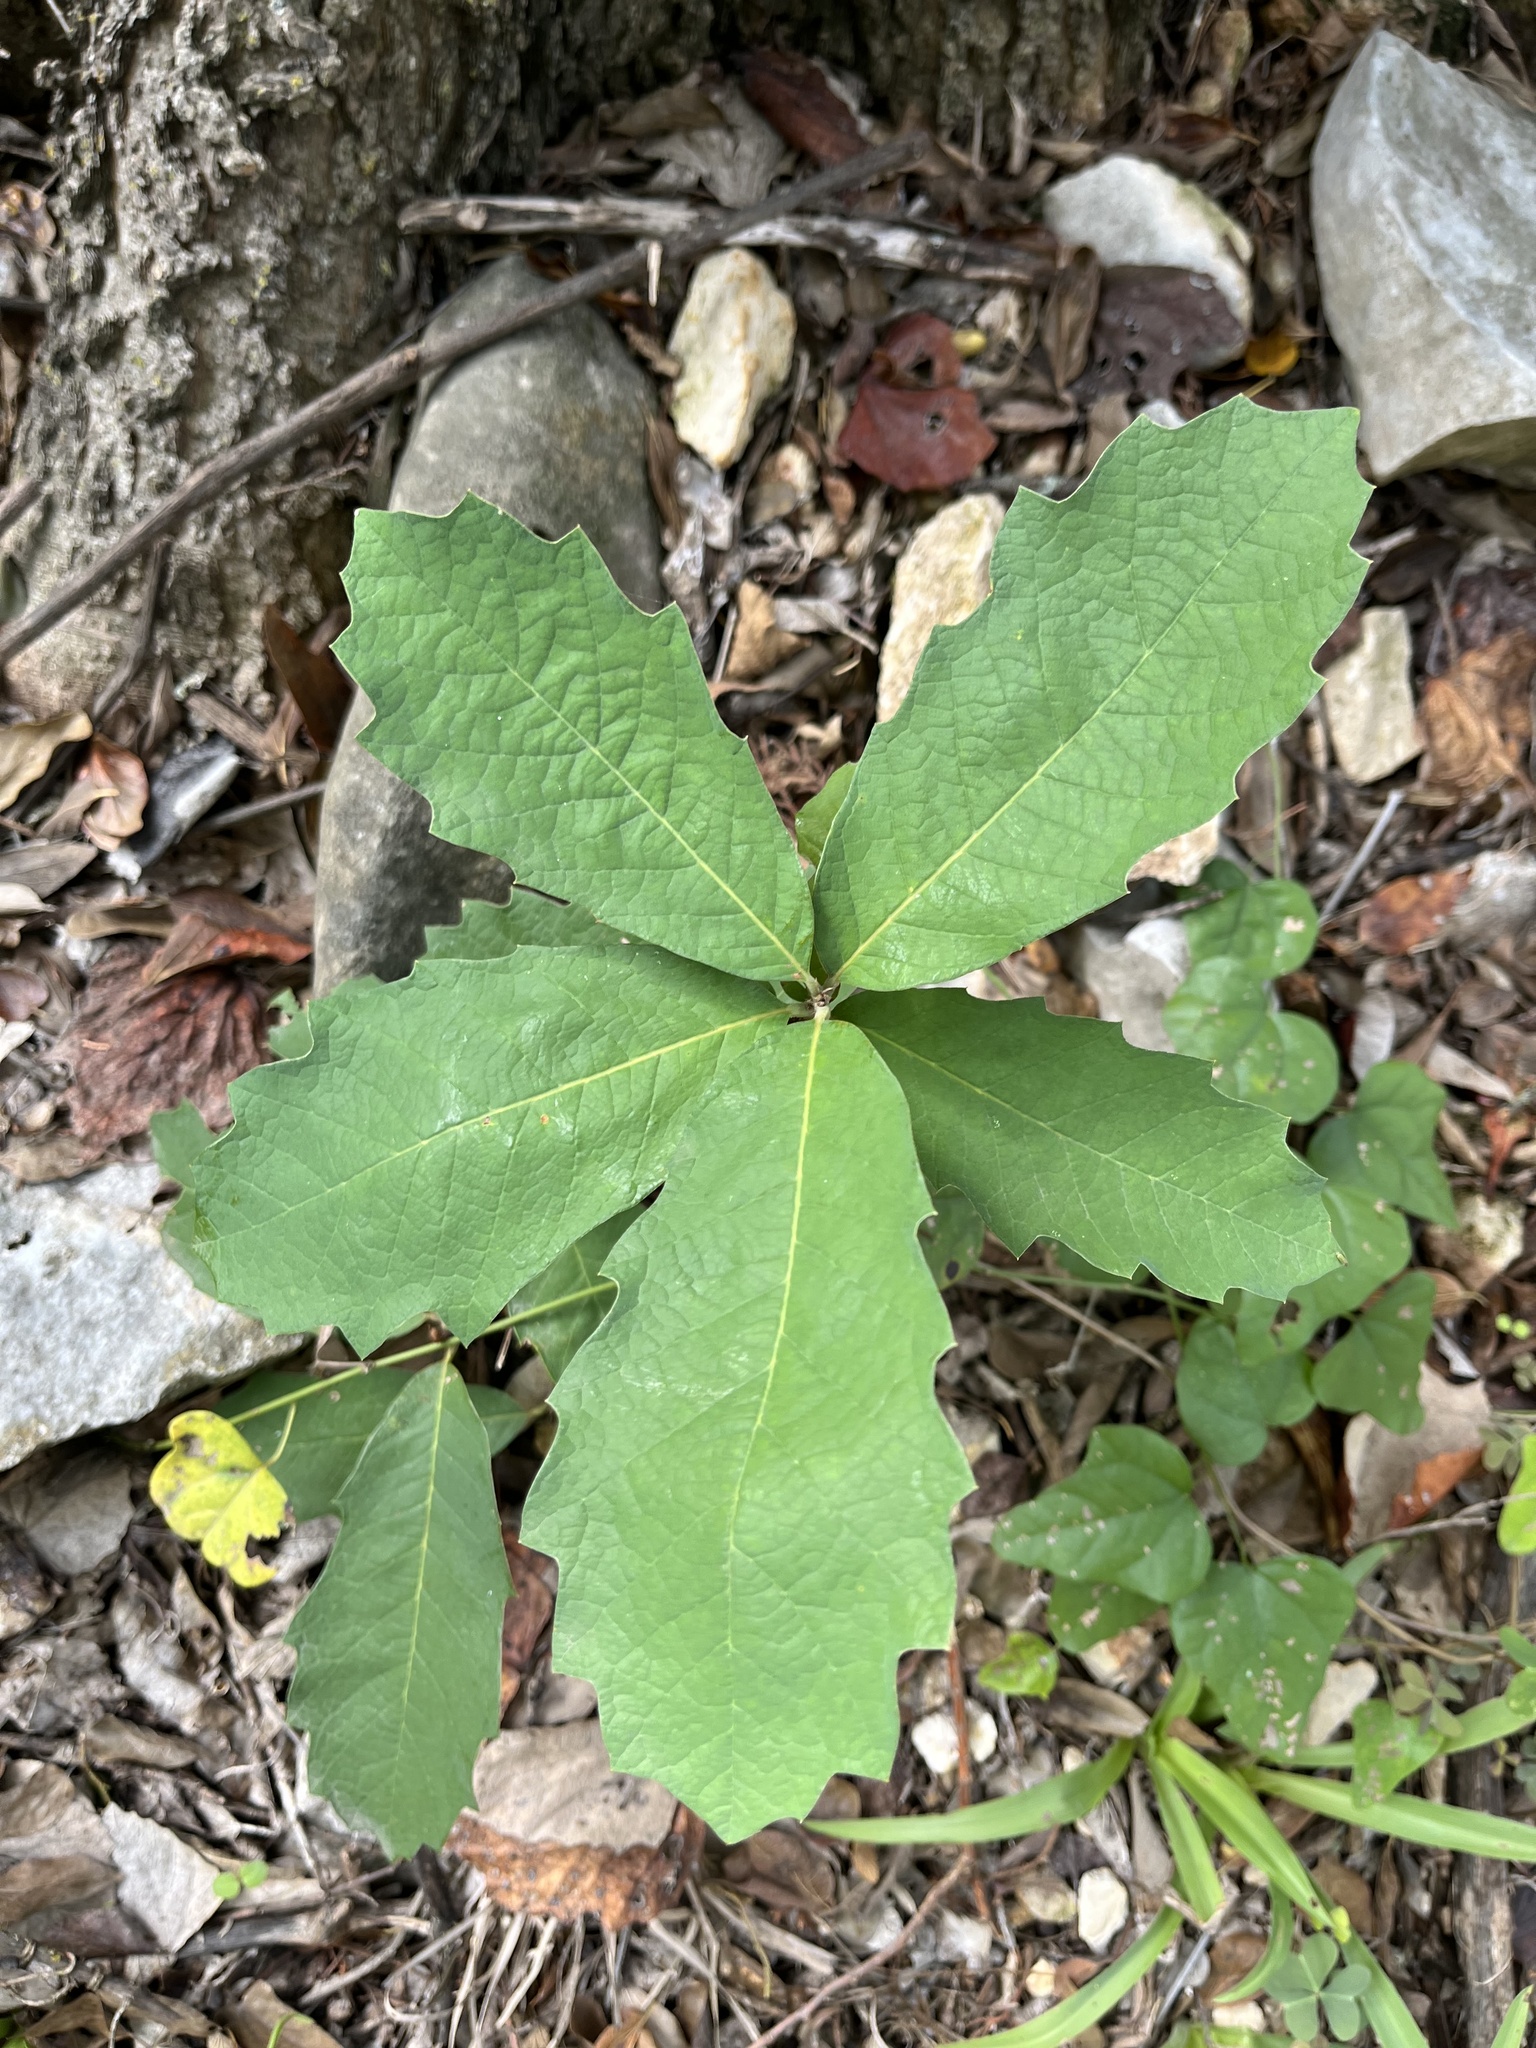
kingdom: Plantae
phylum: Tracheophyta
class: Magnoliopsida
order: Fagales
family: Fagaceae
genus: Quercus
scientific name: Quercus polymorpha
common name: Mexican white oak
